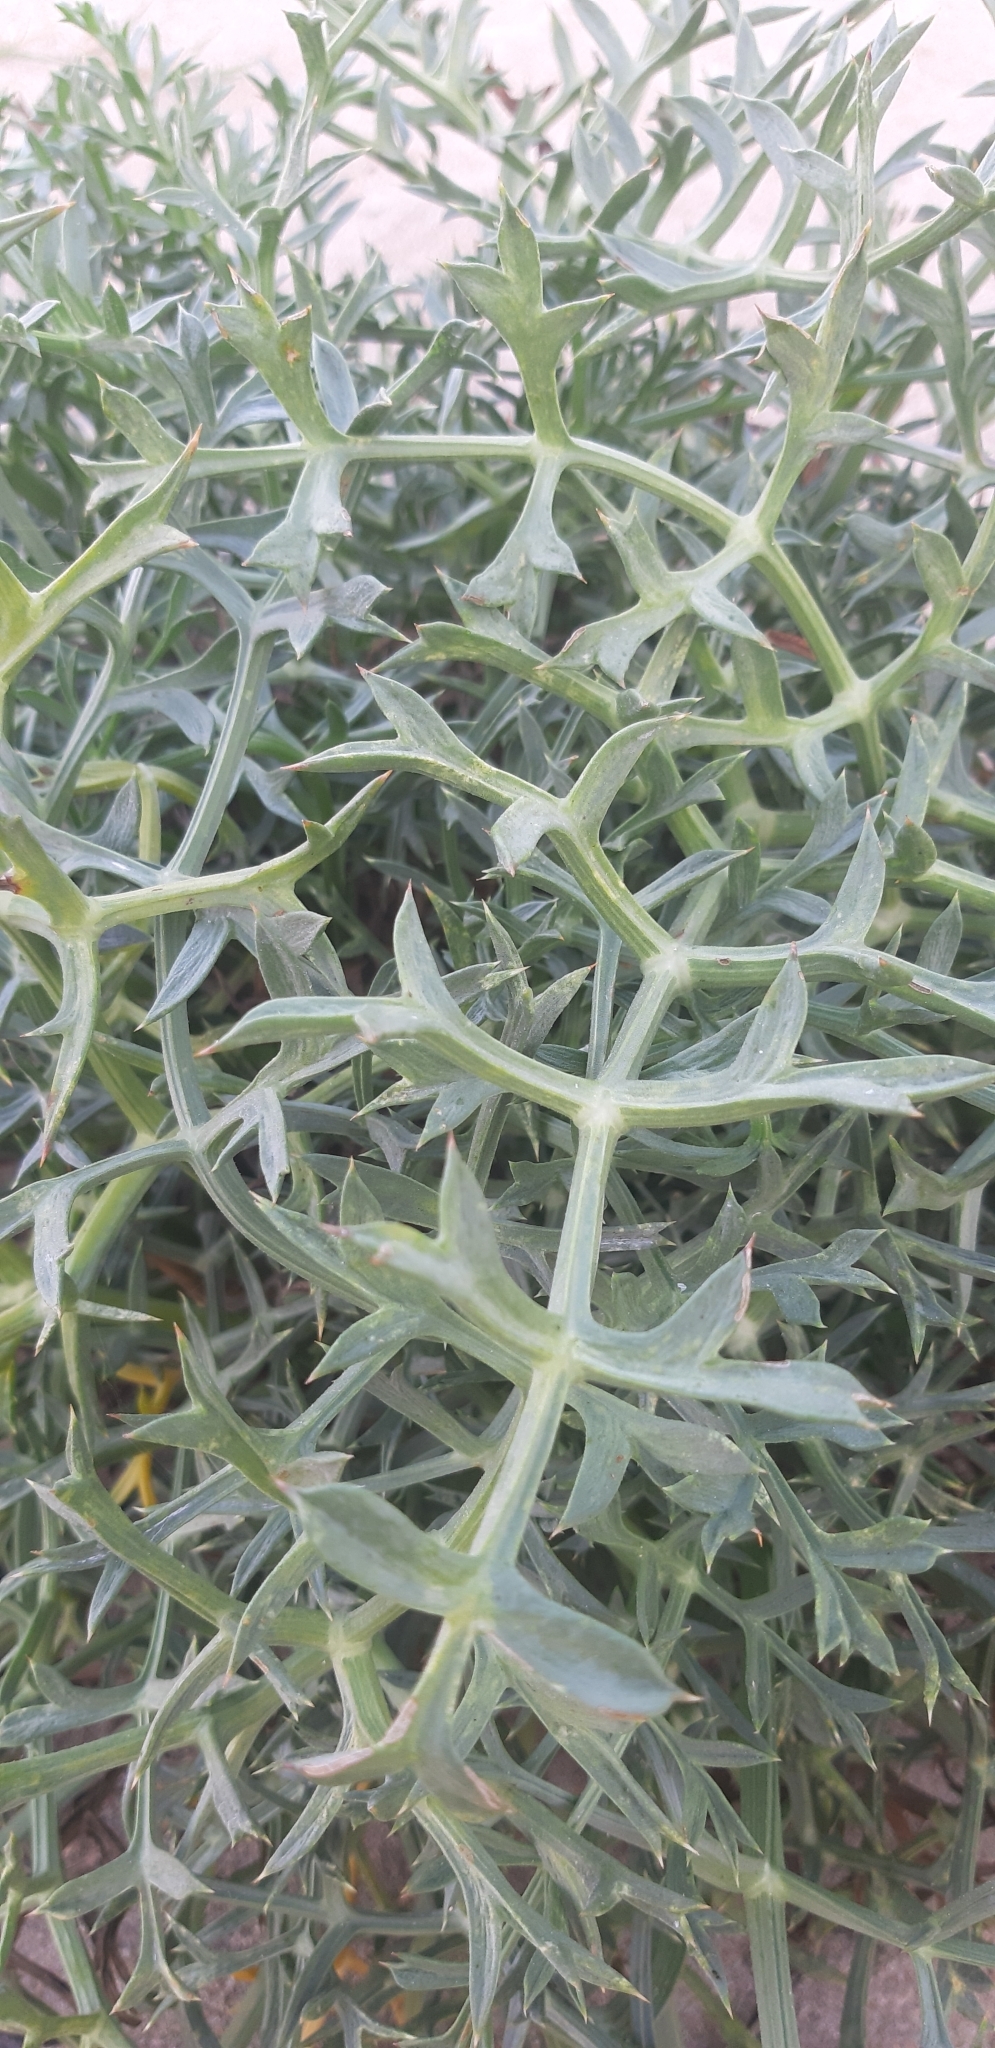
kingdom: Plantae
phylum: Tracheophyta
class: Magnoliopsida
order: Apiales
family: Apiaceae
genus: Echinophora
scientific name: Echinophora spinosa
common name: Prickly samphire
